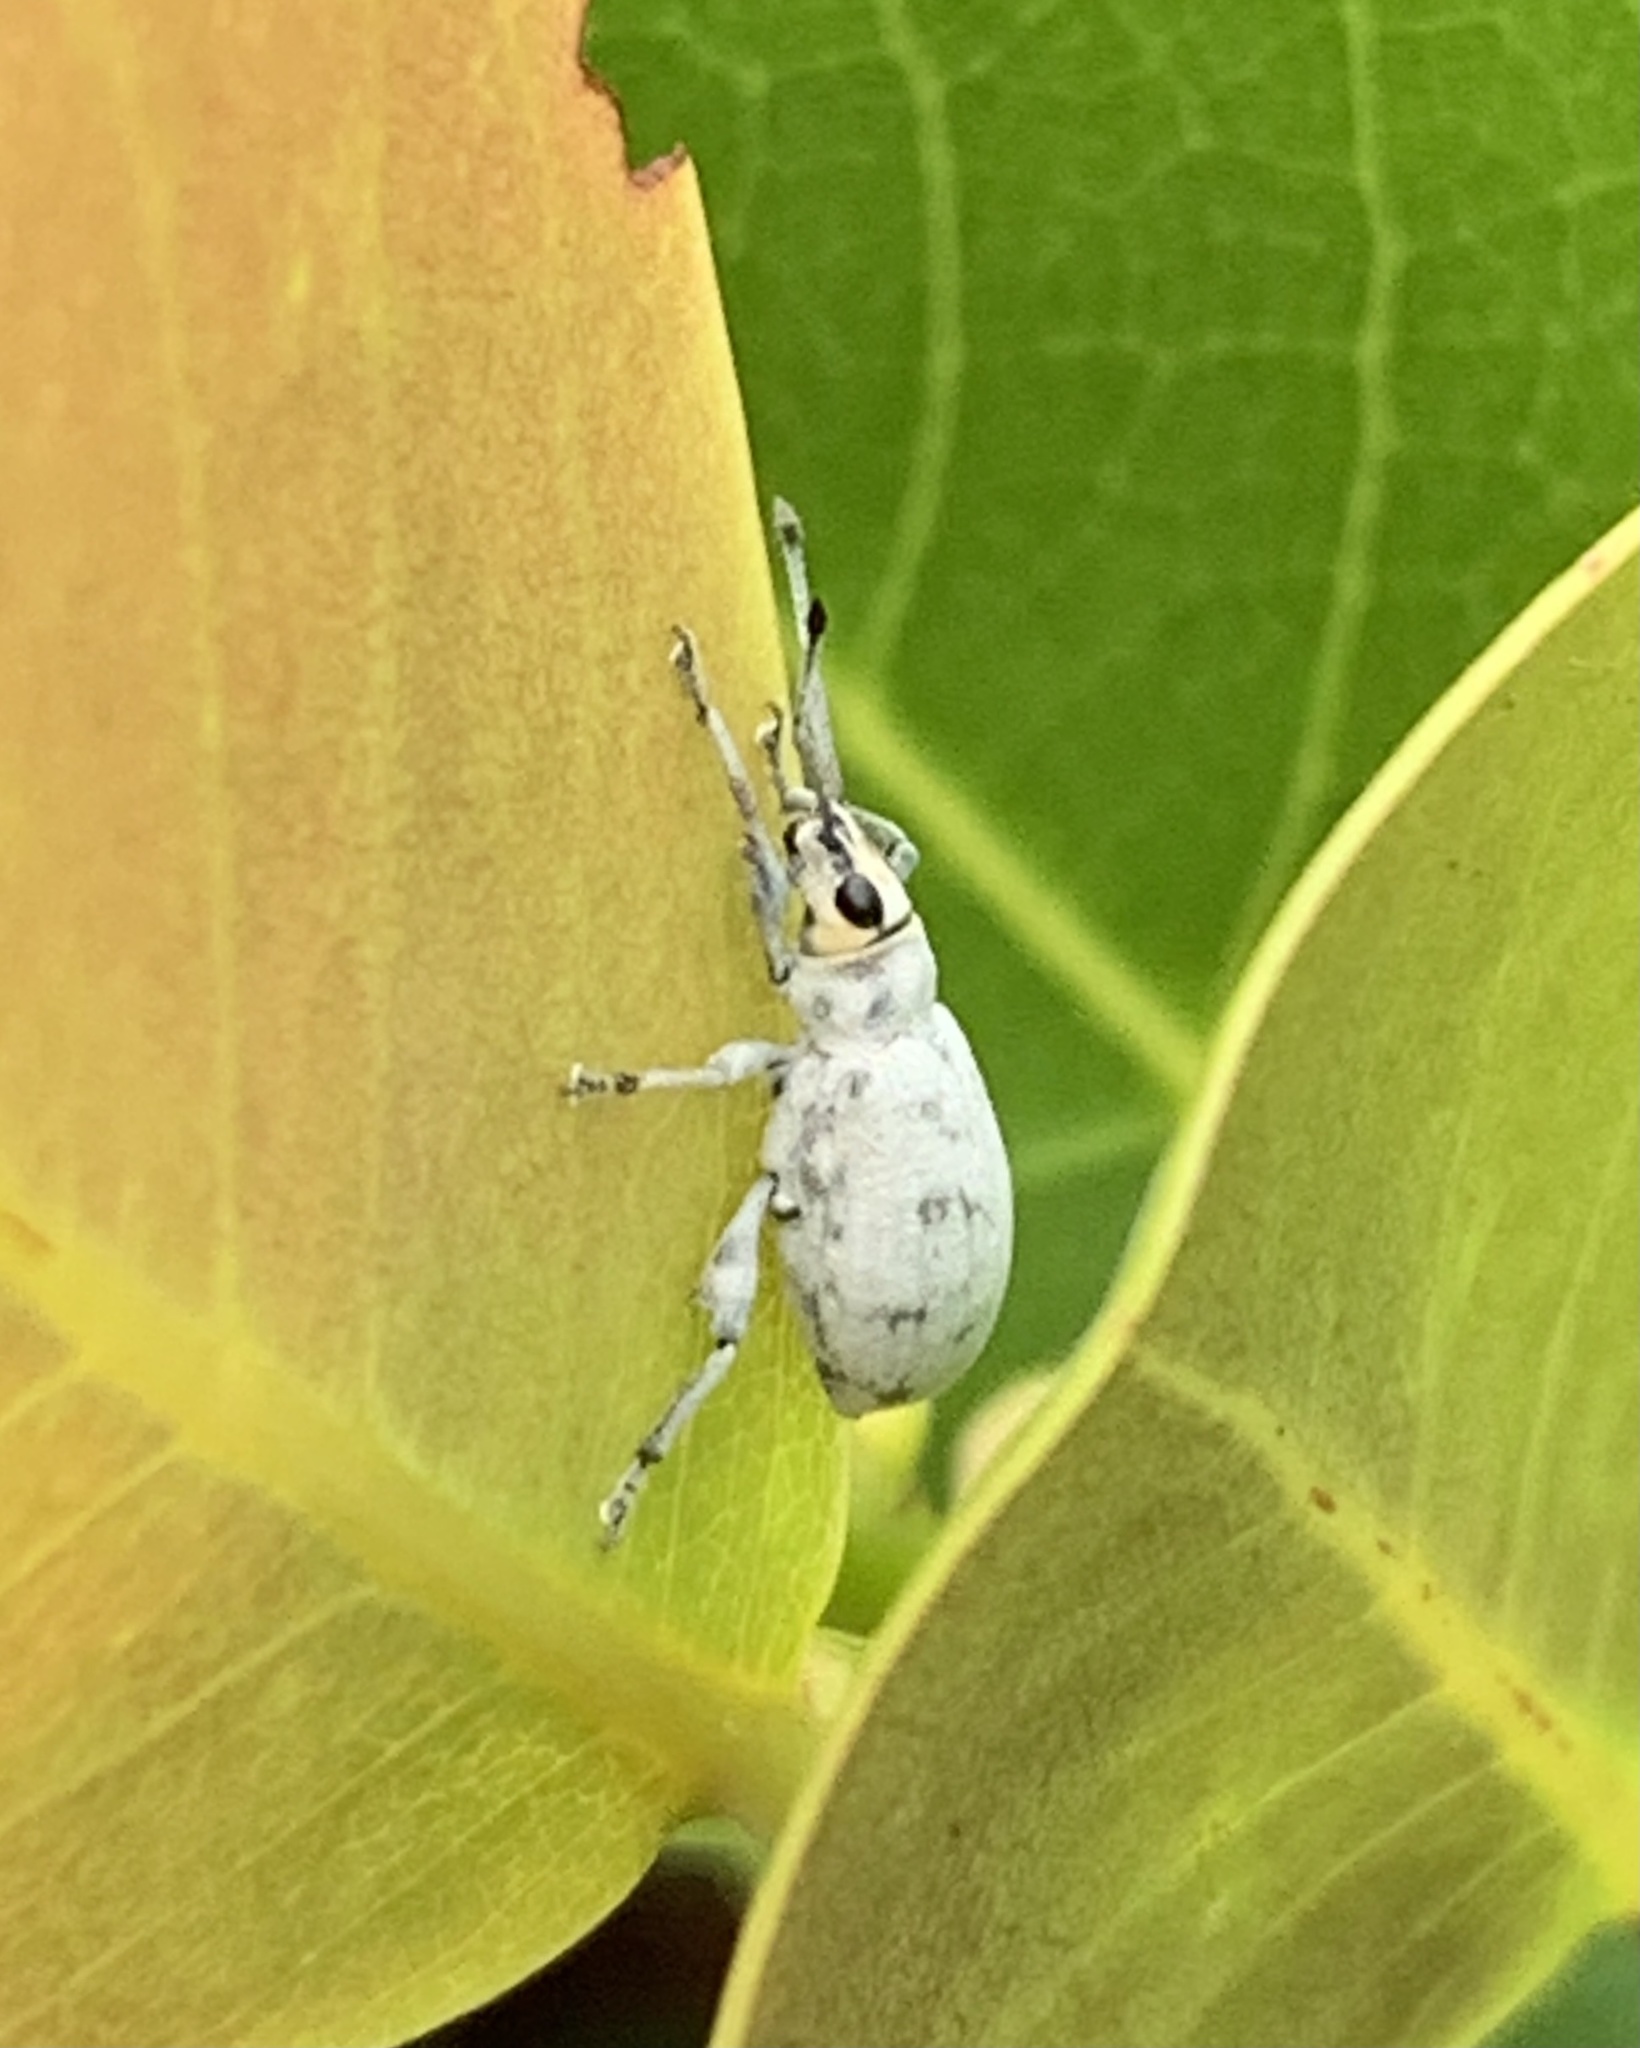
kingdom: Animalia
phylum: Arthropoda
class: Insecta
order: Coleoptera
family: Curculionidae
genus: Myllocerus
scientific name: Myllocerus undecimpustulatus
